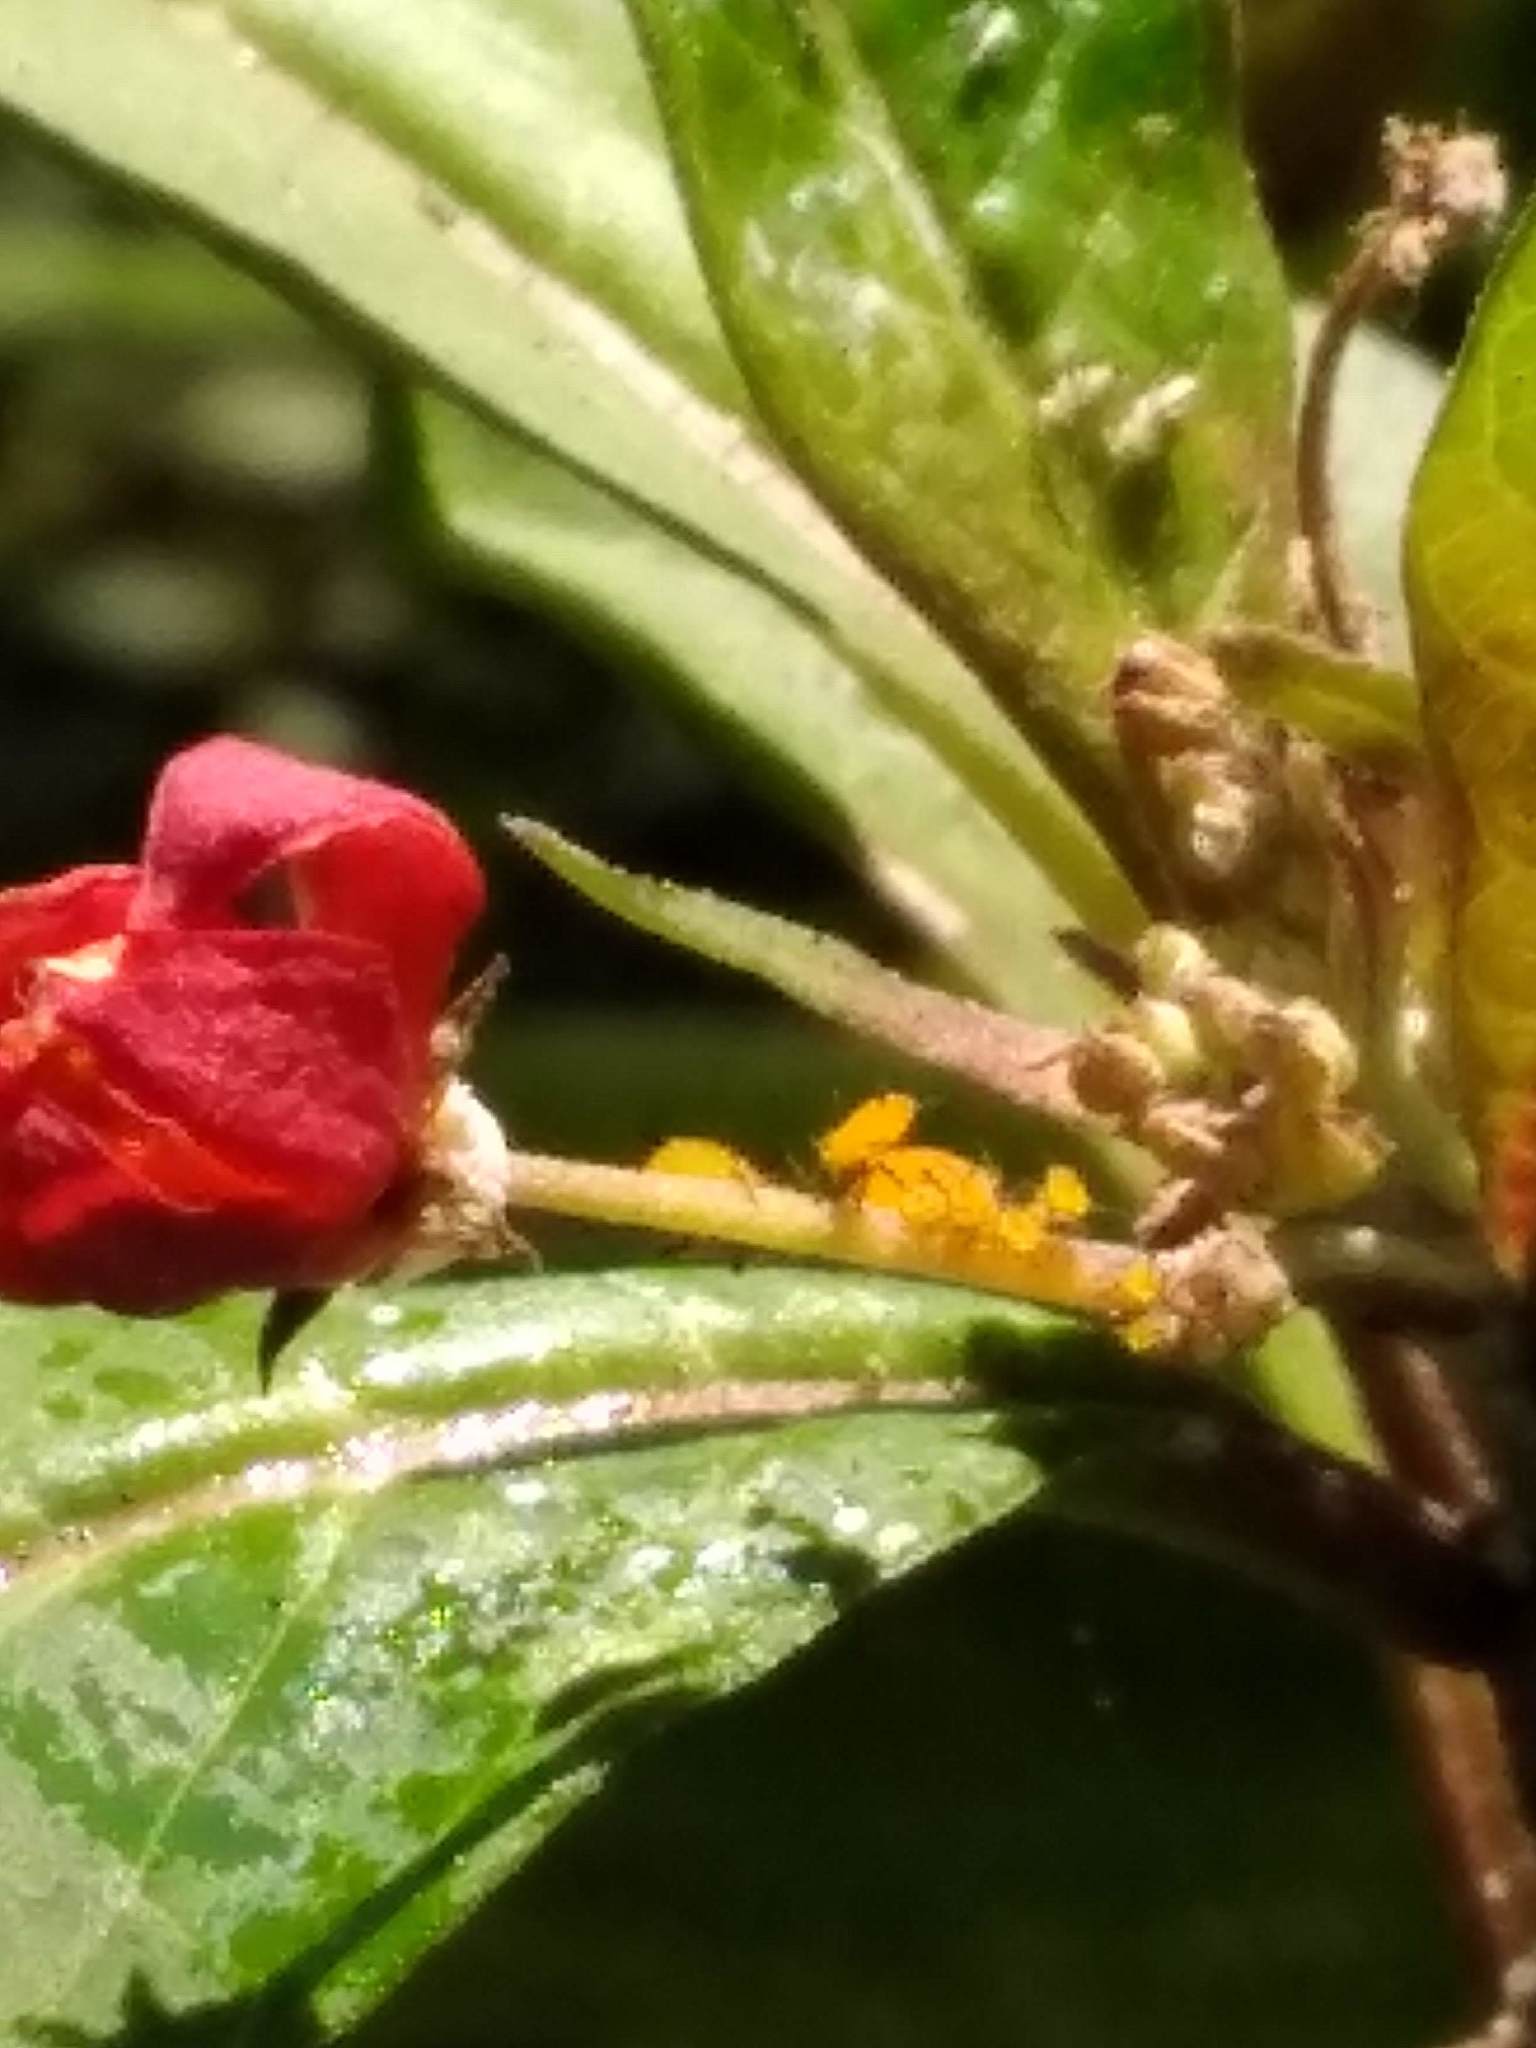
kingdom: Animalia
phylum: Arthropoda
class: Insecta
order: Hemiptera
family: Aphididae
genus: Aphis
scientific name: Aphis nerii
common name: Oleander aphid
